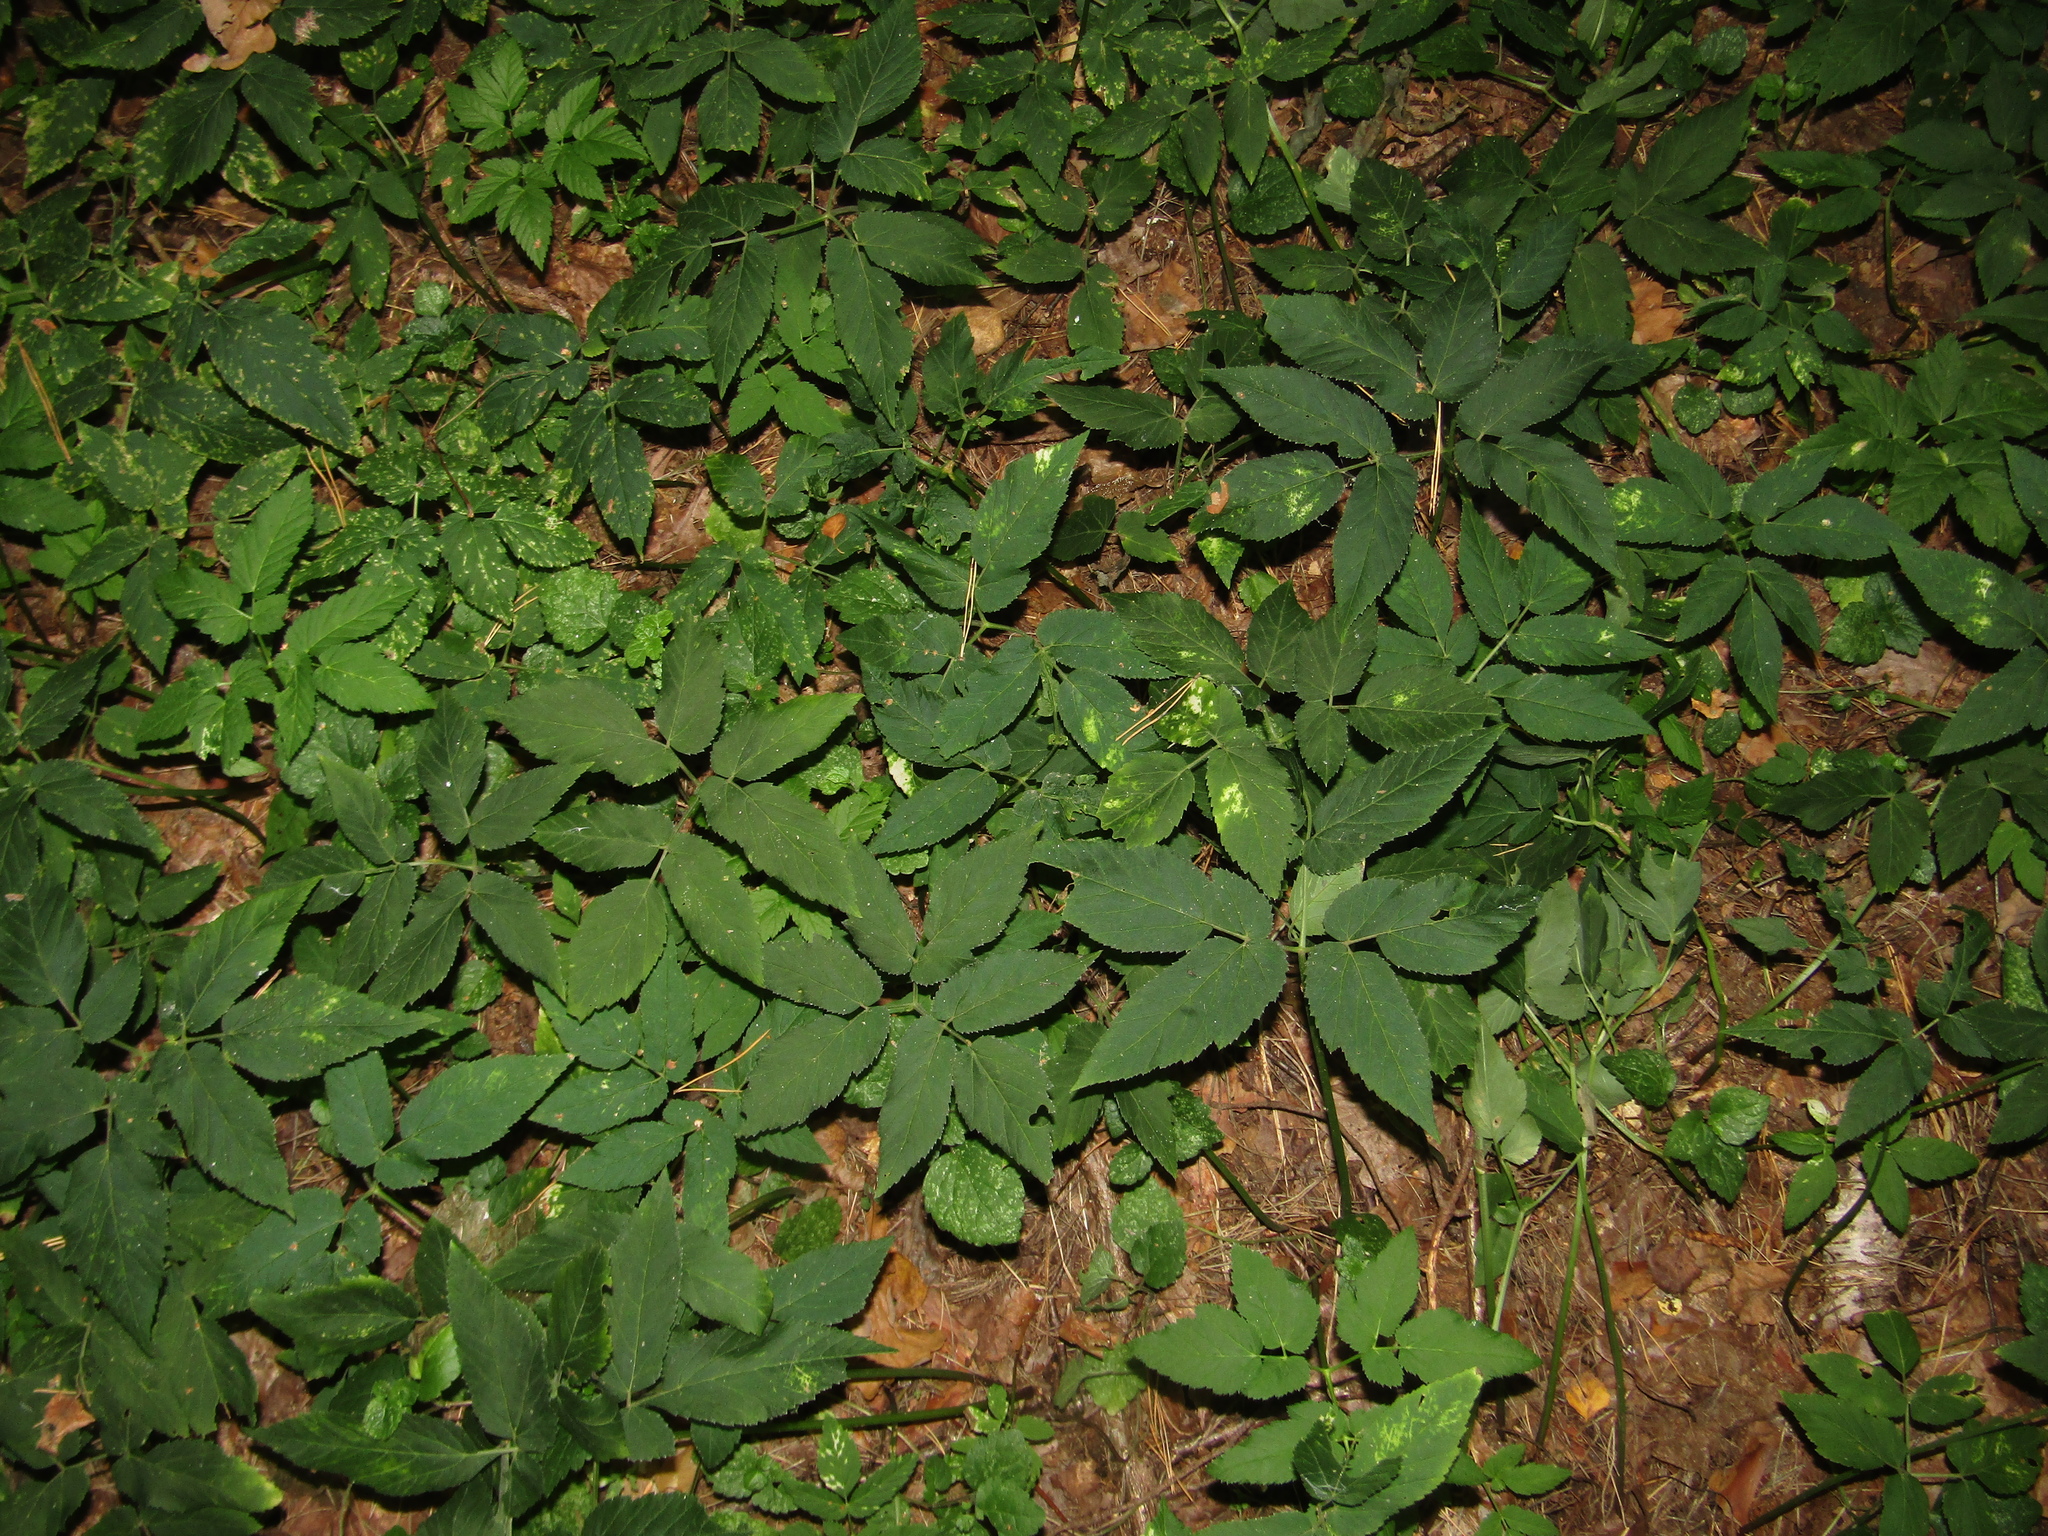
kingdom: Plantae
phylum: Tracheophyta
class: Magnoliopsida
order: Apiales
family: Apiaceae
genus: Aegopodium
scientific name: Aegopodium podagraria
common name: Ground-elder
